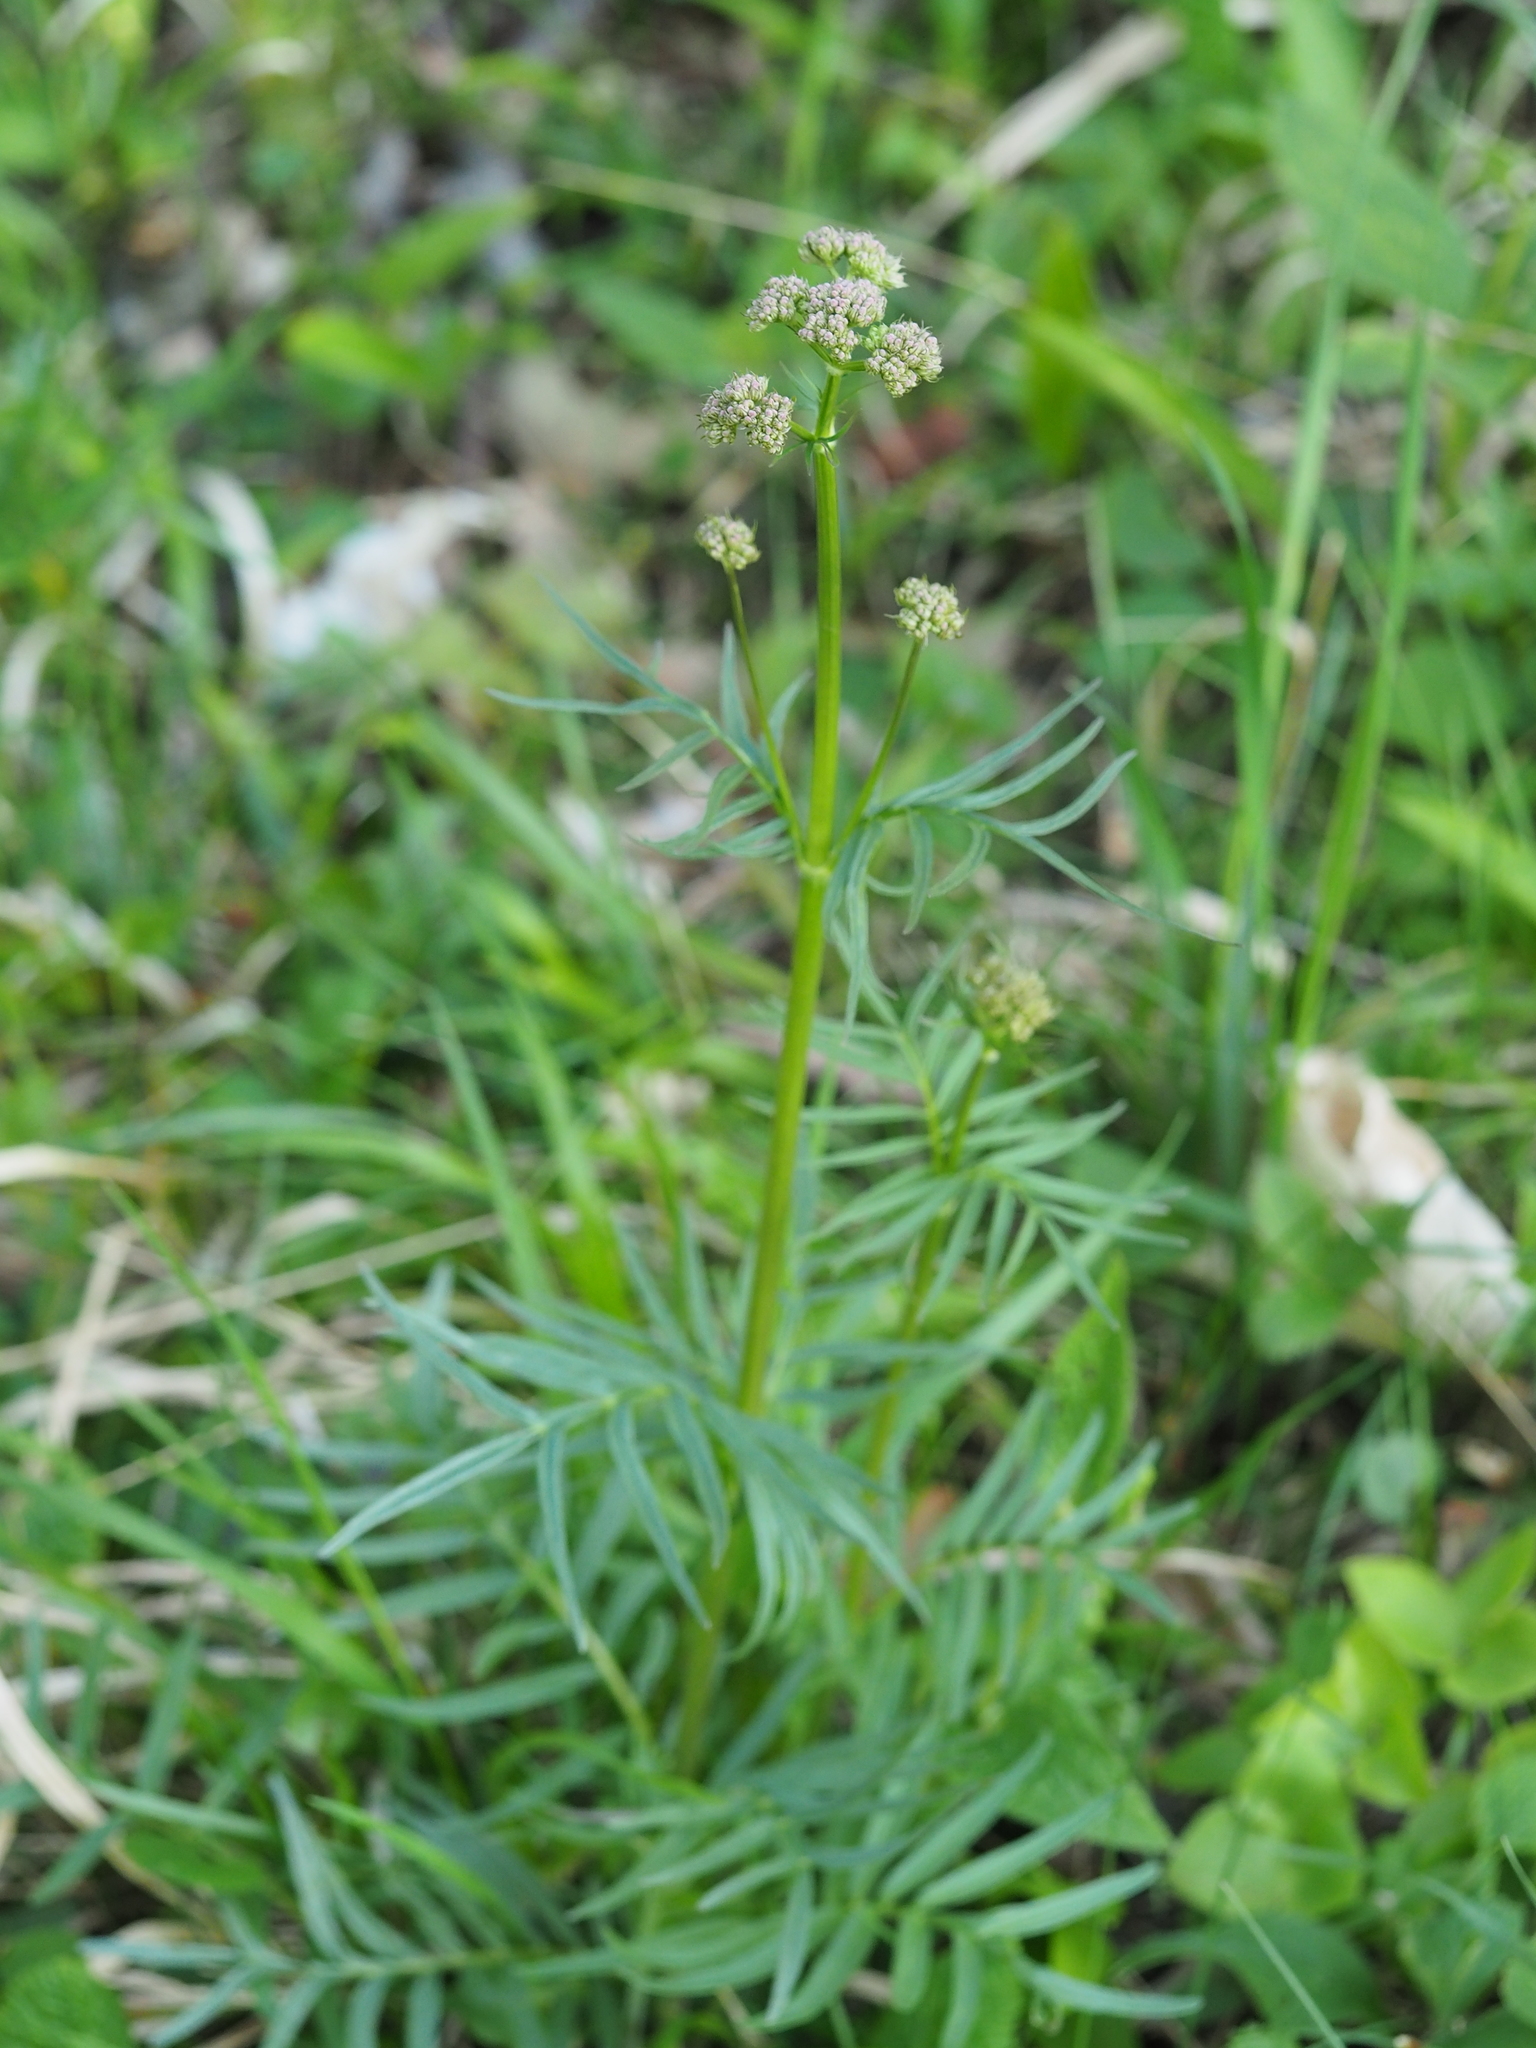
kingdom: Plantae
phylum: Tracheophyta
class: Magnoliopsida
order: Dipsacales
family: Caprifoliaceae
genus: Valeriana
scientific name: Valeriana pratensis
